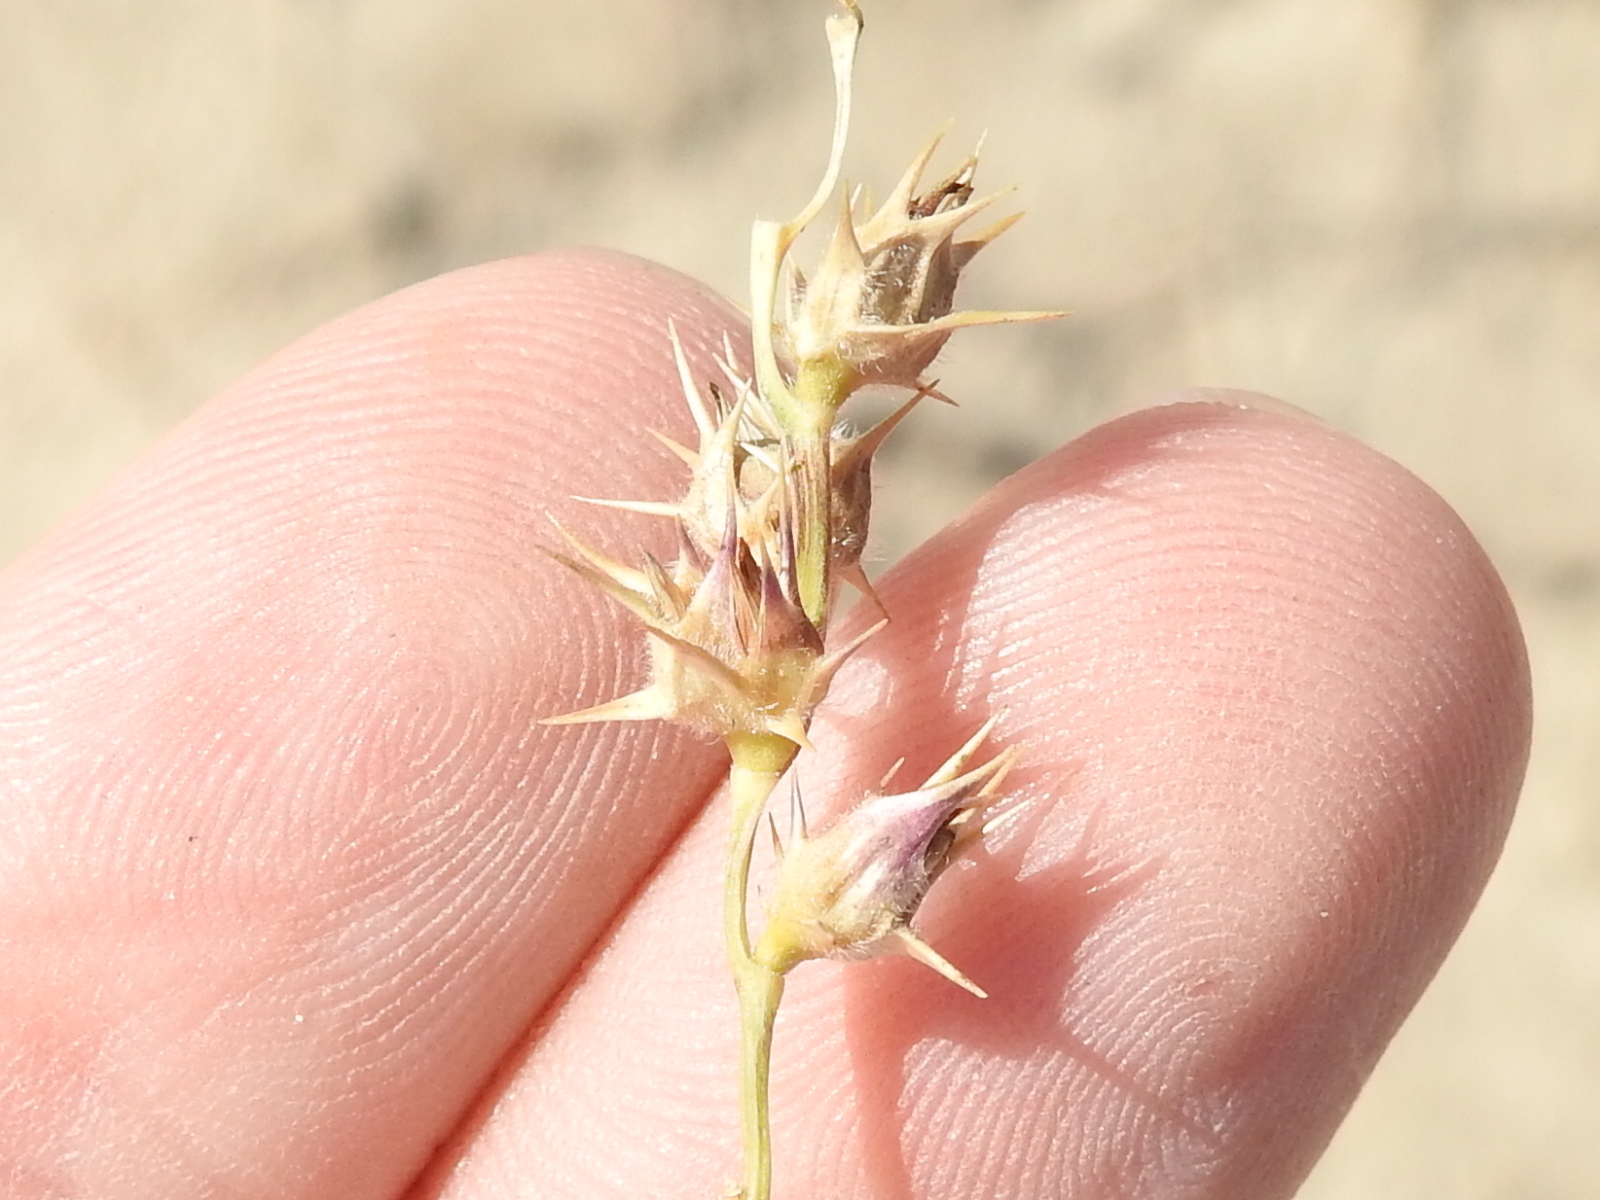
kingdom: Plantae
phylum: Tracheophyta
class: Liliopsida
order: Poales
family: Poaceae
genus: Cenchrus
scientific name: Cenchrus spinifex
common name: Coast sandbur
